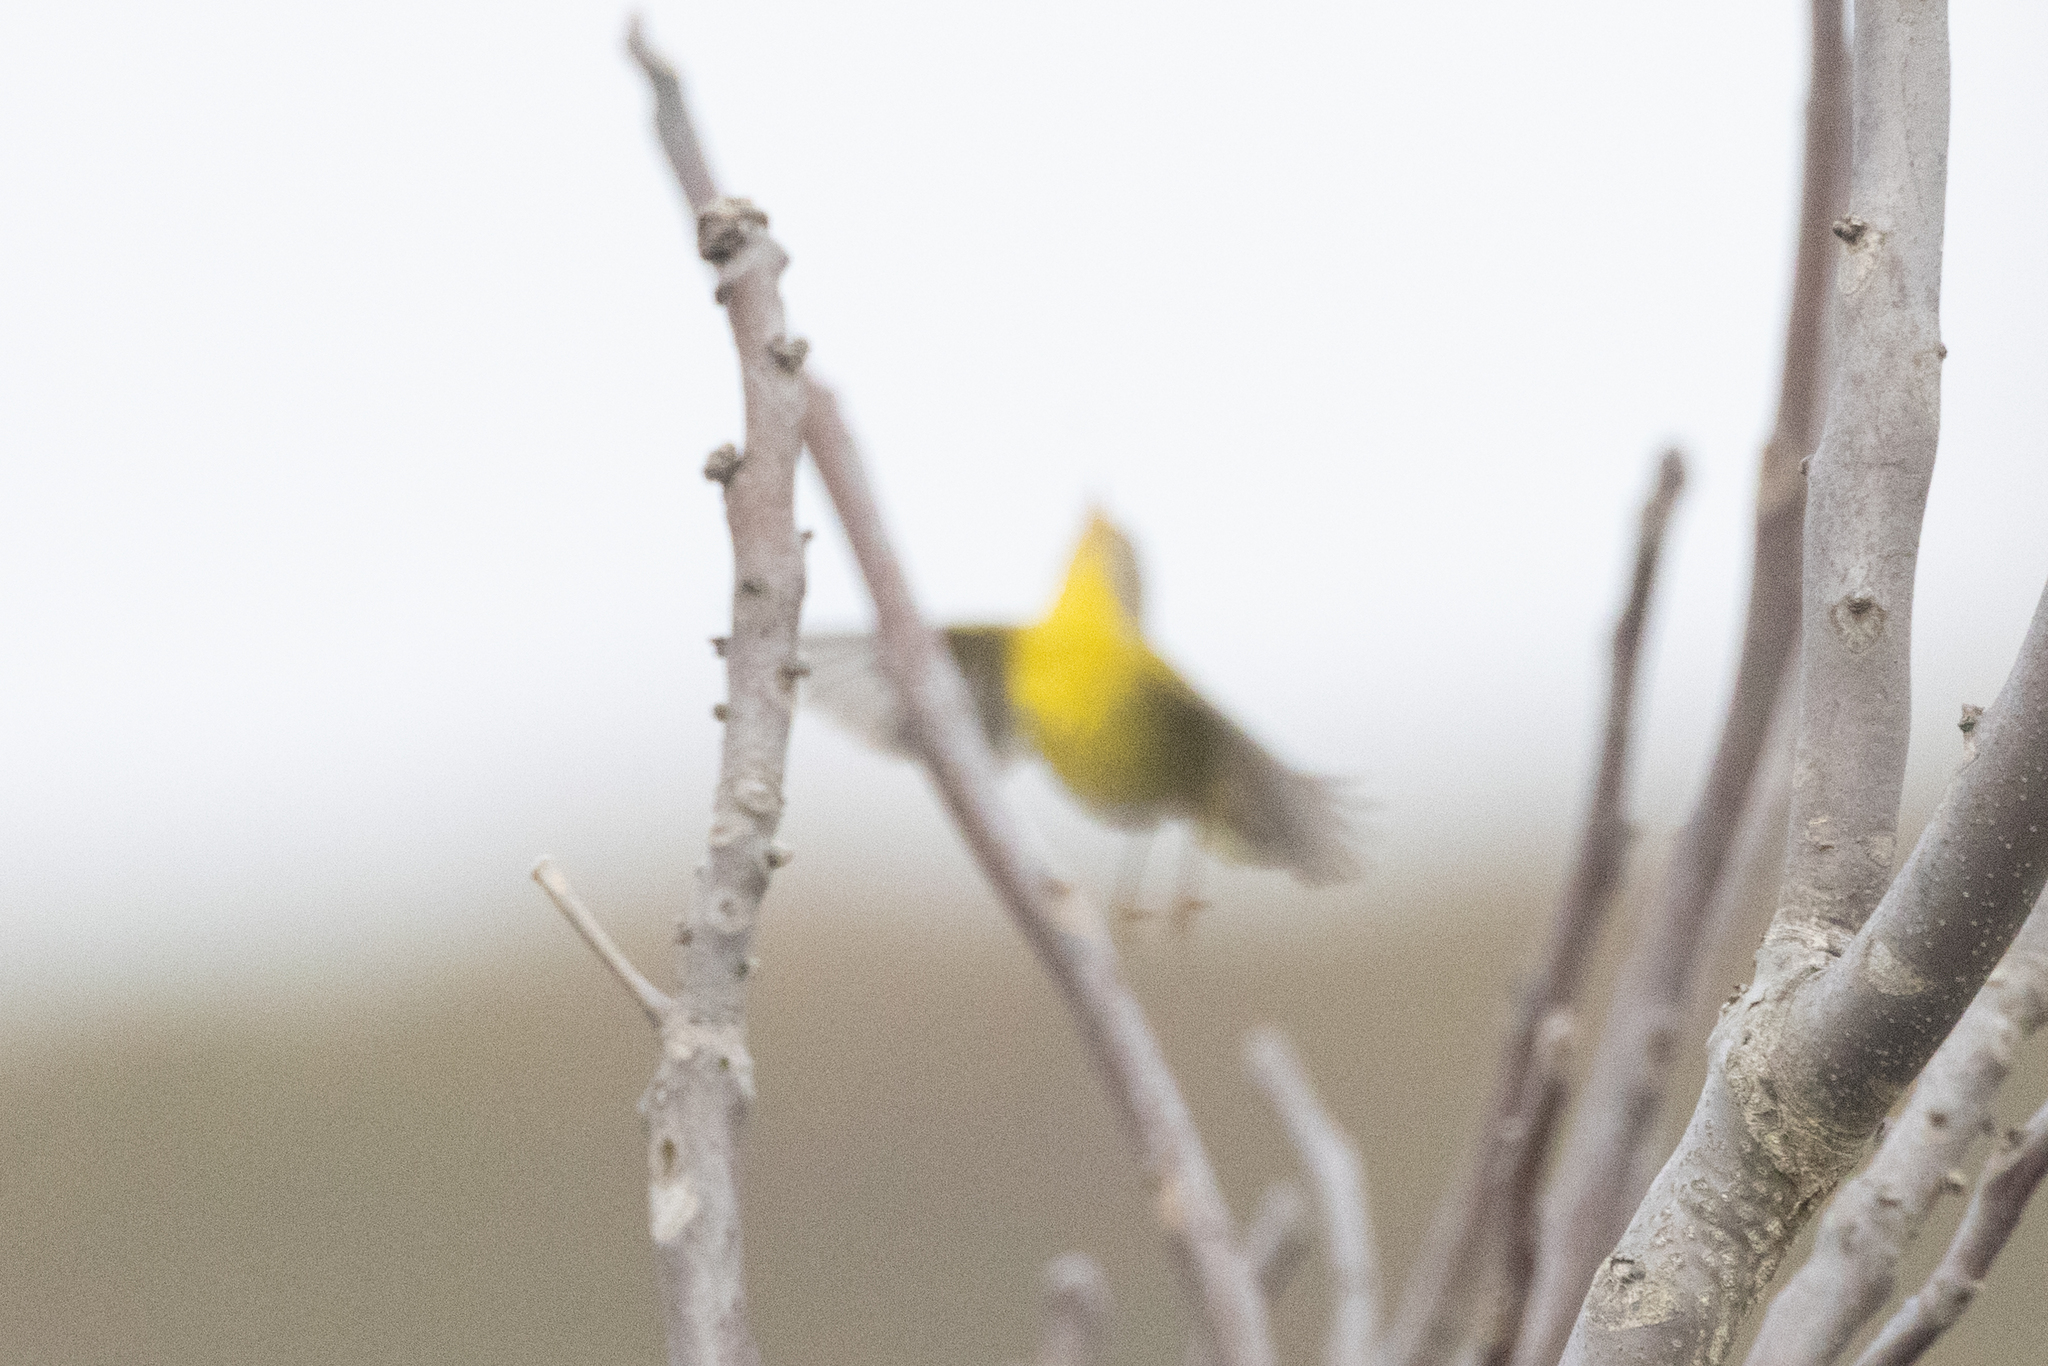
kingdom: Animalia
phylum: Chordata
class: Aves
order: Passeriformes
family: Parulidae
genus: Leiothlypis
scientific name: Leiothlypis ruficapilla
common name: Nashville warbler
